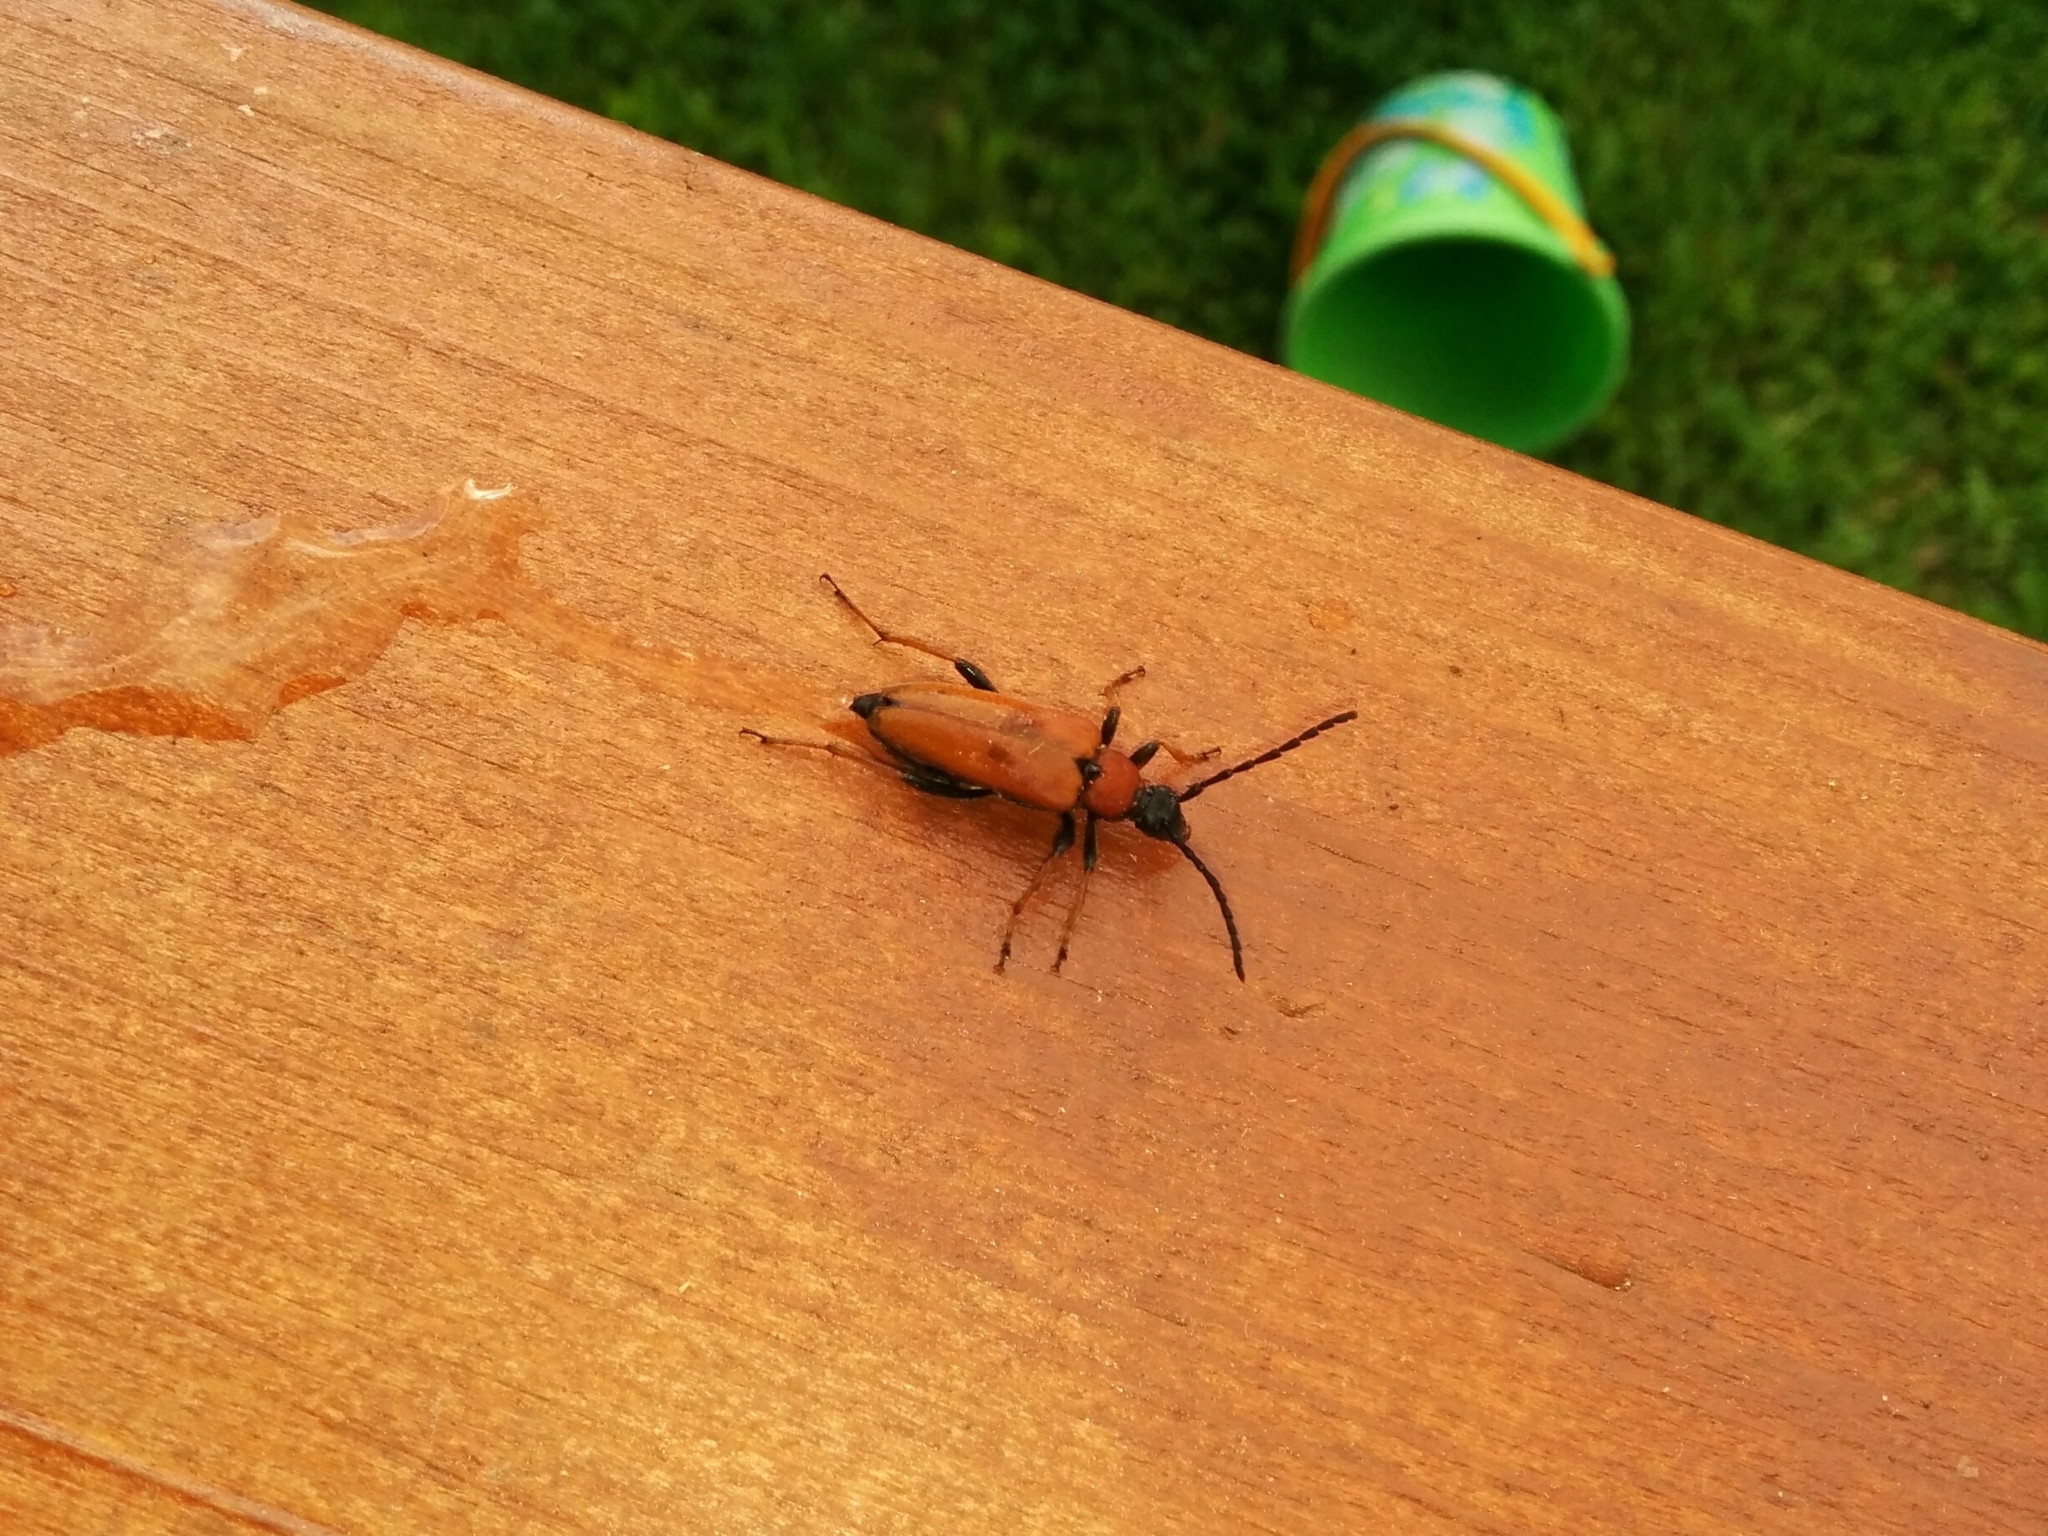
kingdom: Animalia
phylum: Arthropoda
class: Insecta
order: Coleoptera
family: Cerambycidae
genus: Stictoleptura
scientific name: Stictoleptura rubra
